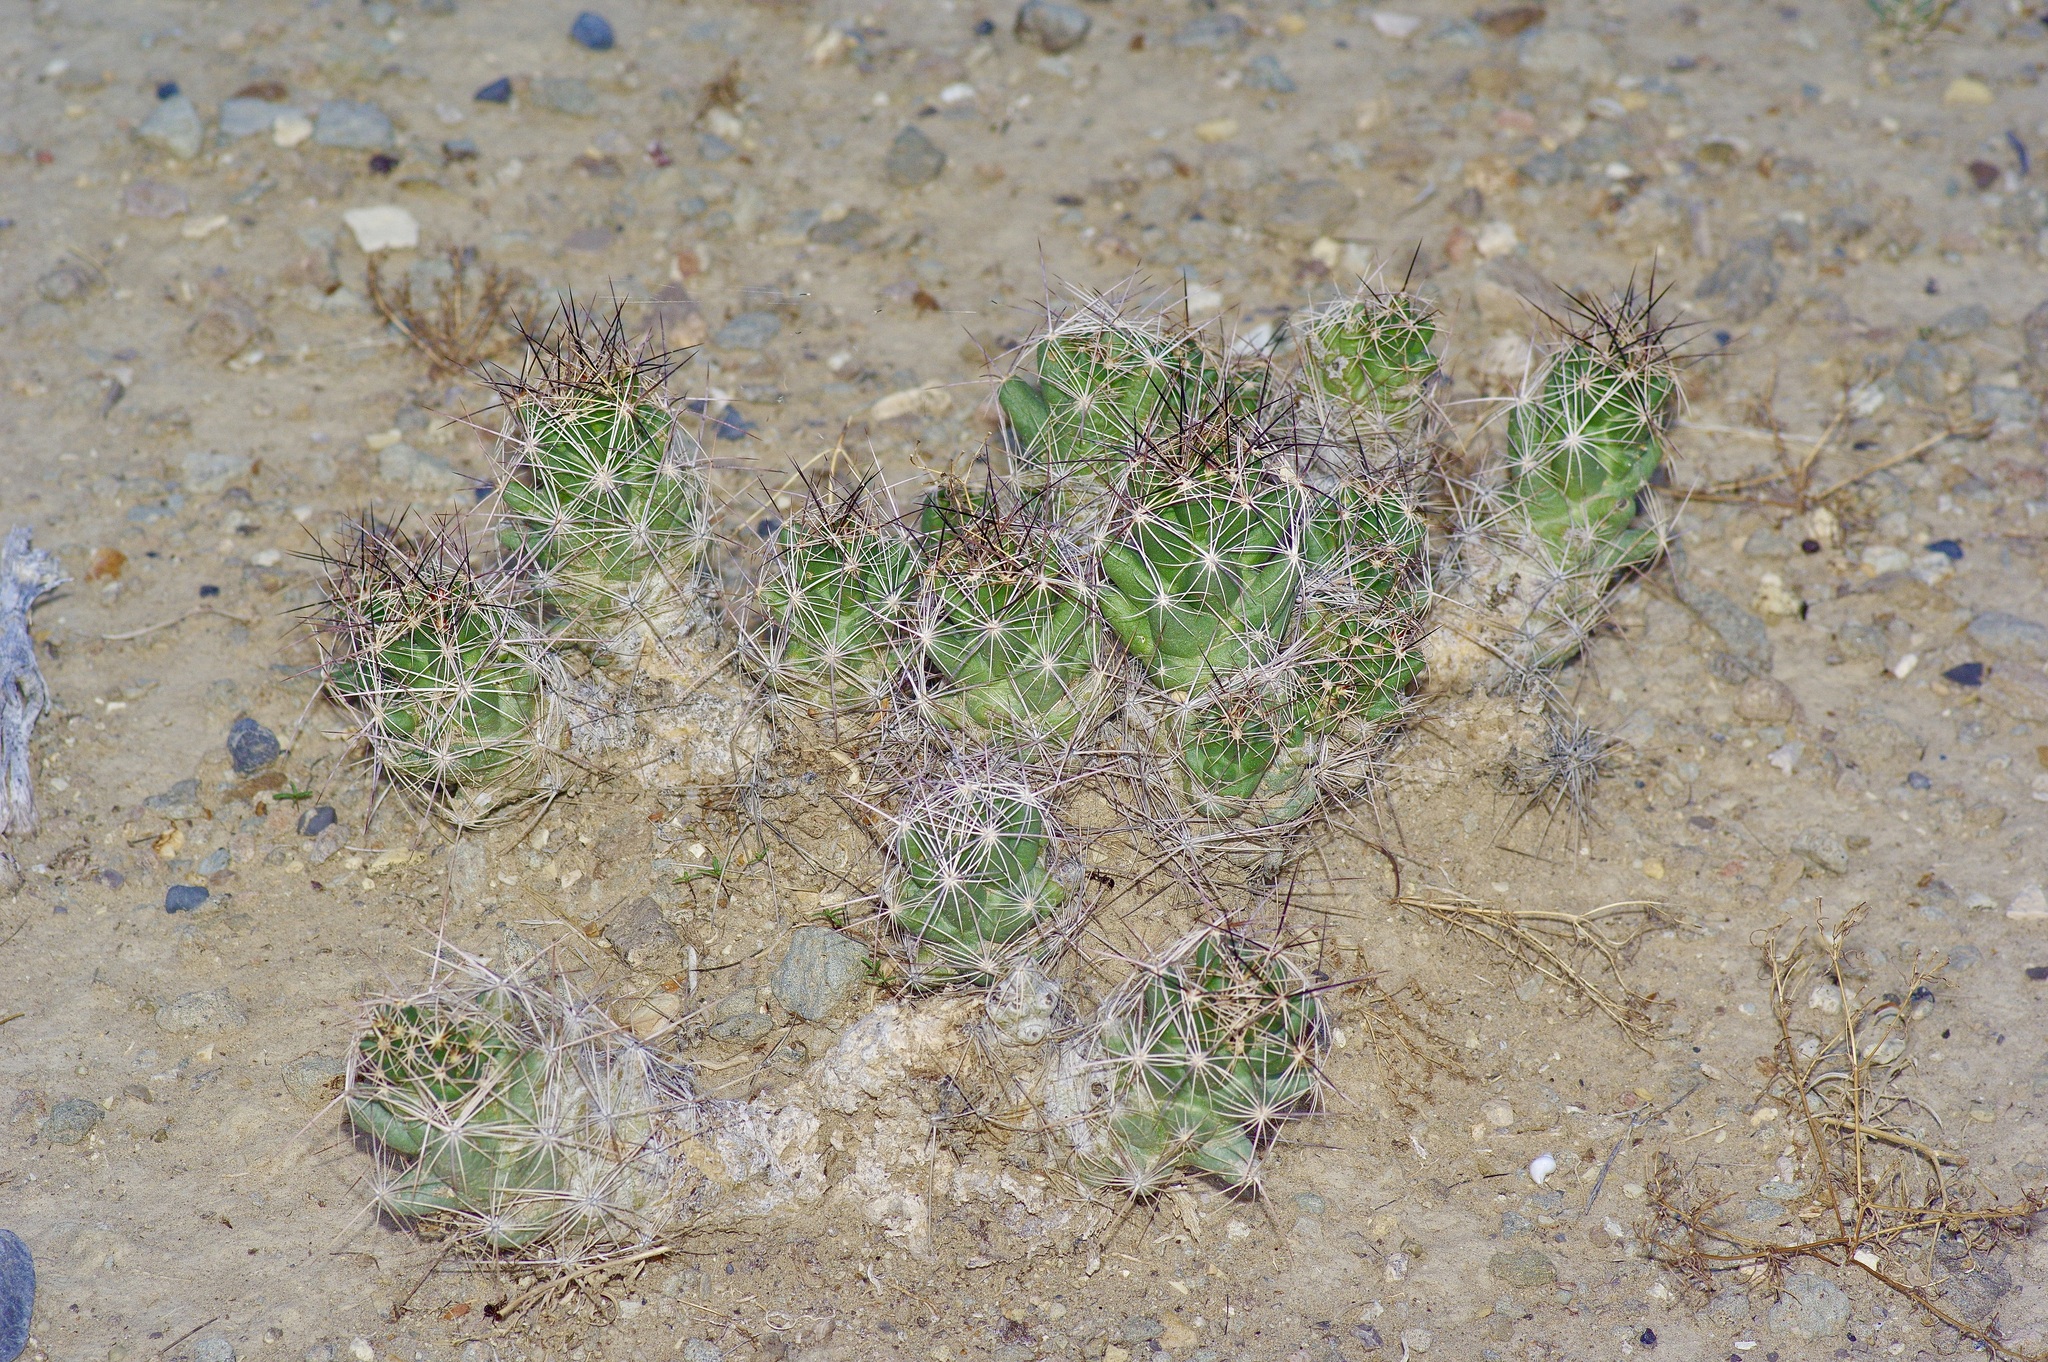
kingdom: Plantae
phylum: Tracheophyta
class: Magnoliopsida
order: Caryophyllales
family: Cactaceae
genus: Coryphantha
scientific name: Coryphantha macromeris
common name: Nipple beehive cactus
